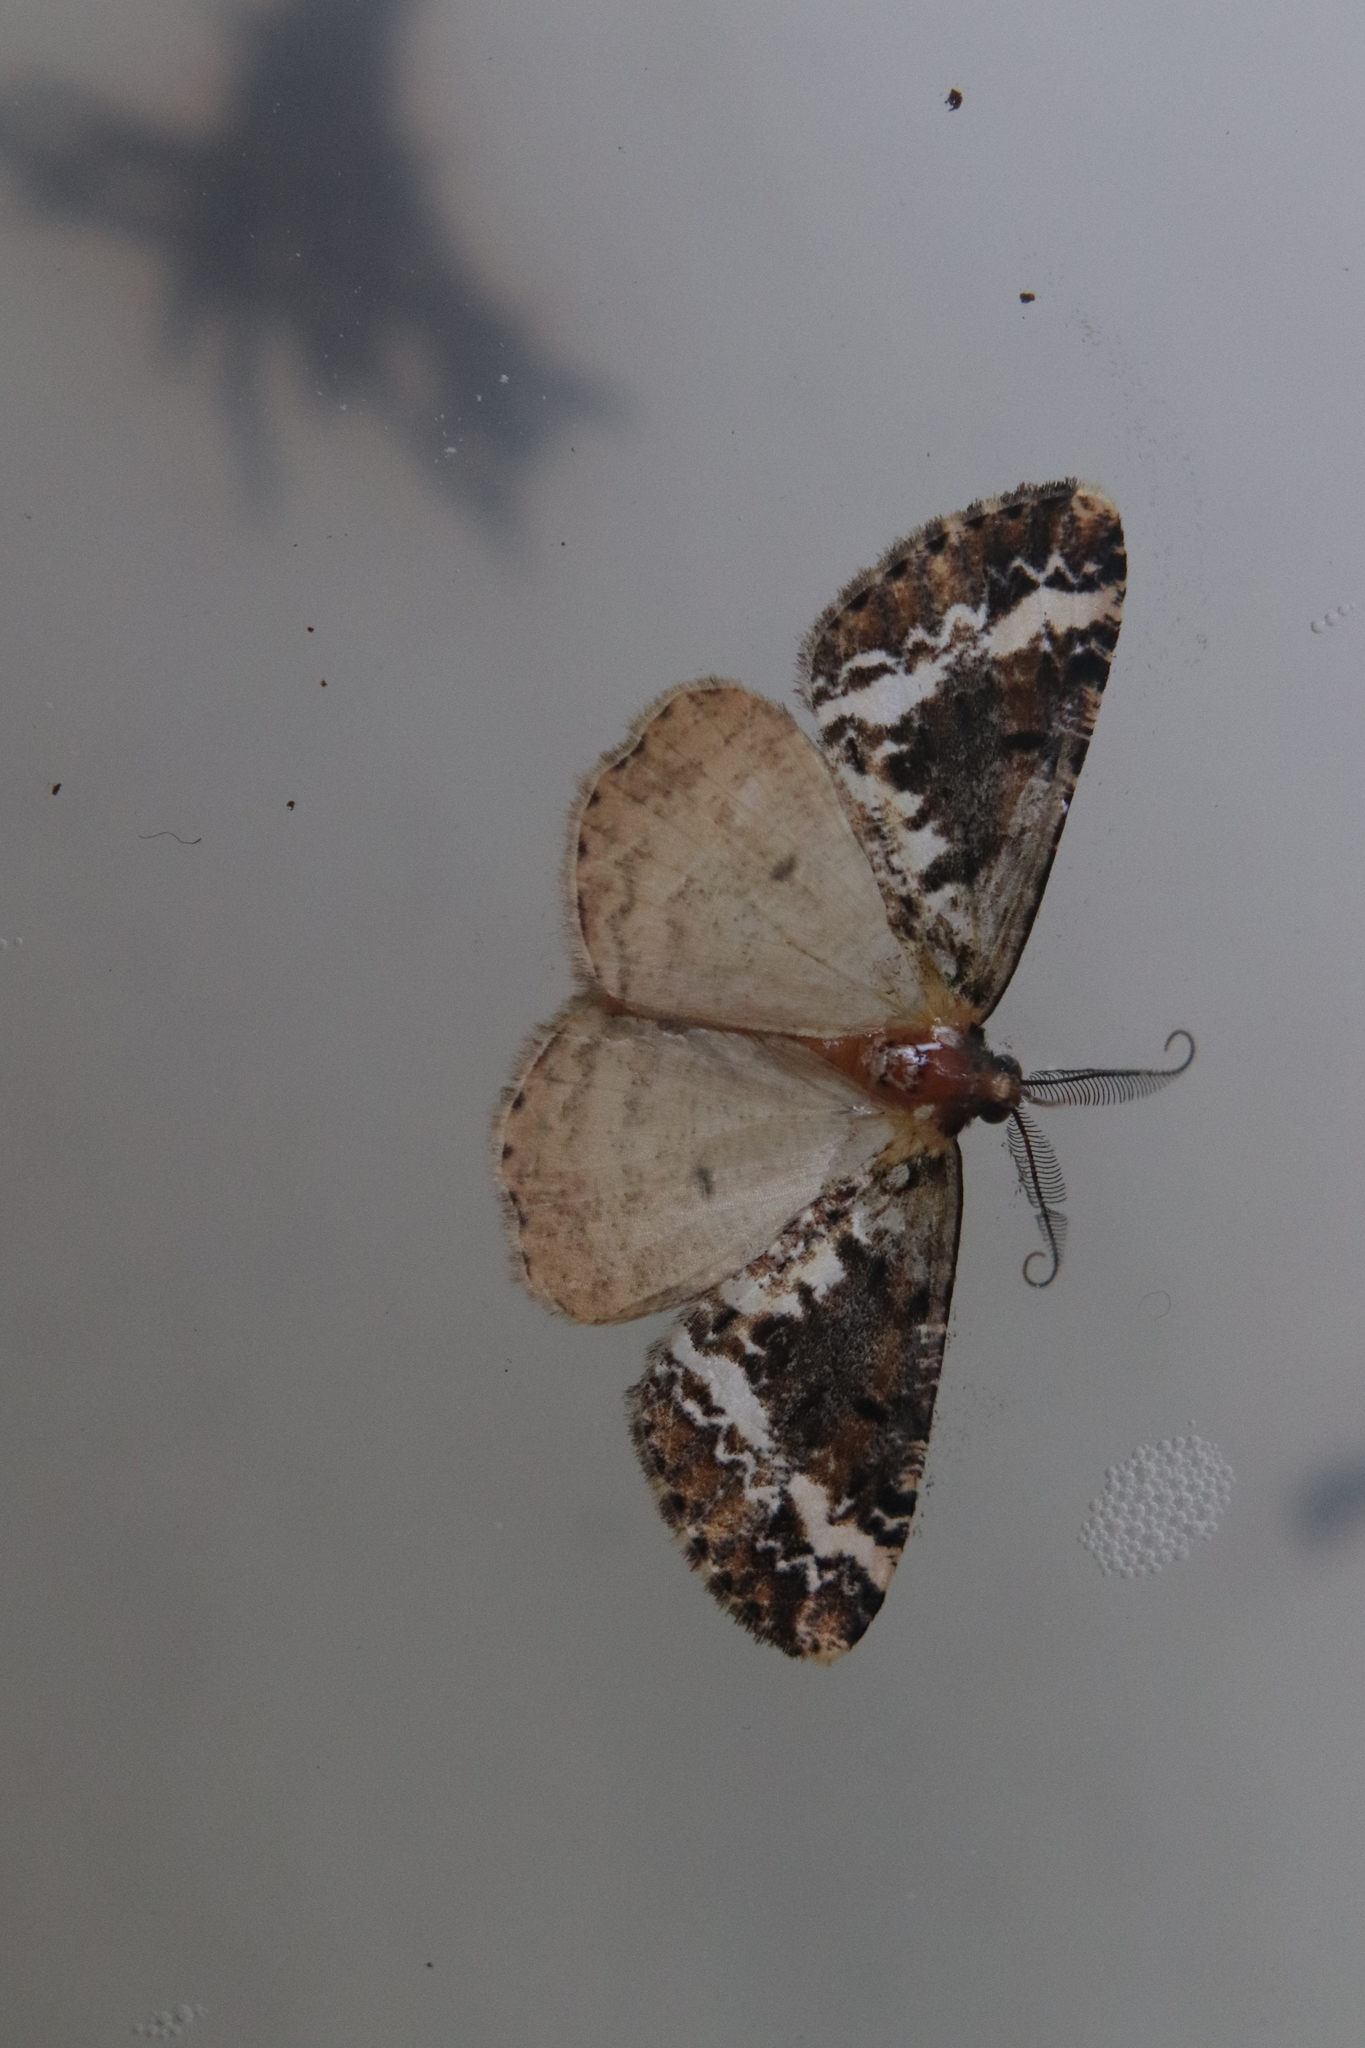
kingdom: Animalia
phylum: Arthropoda
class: Insecta
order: Lepidoptera
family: Geometridae
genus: Pseudocoremia
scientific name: Pseudocoremia leucelaea
